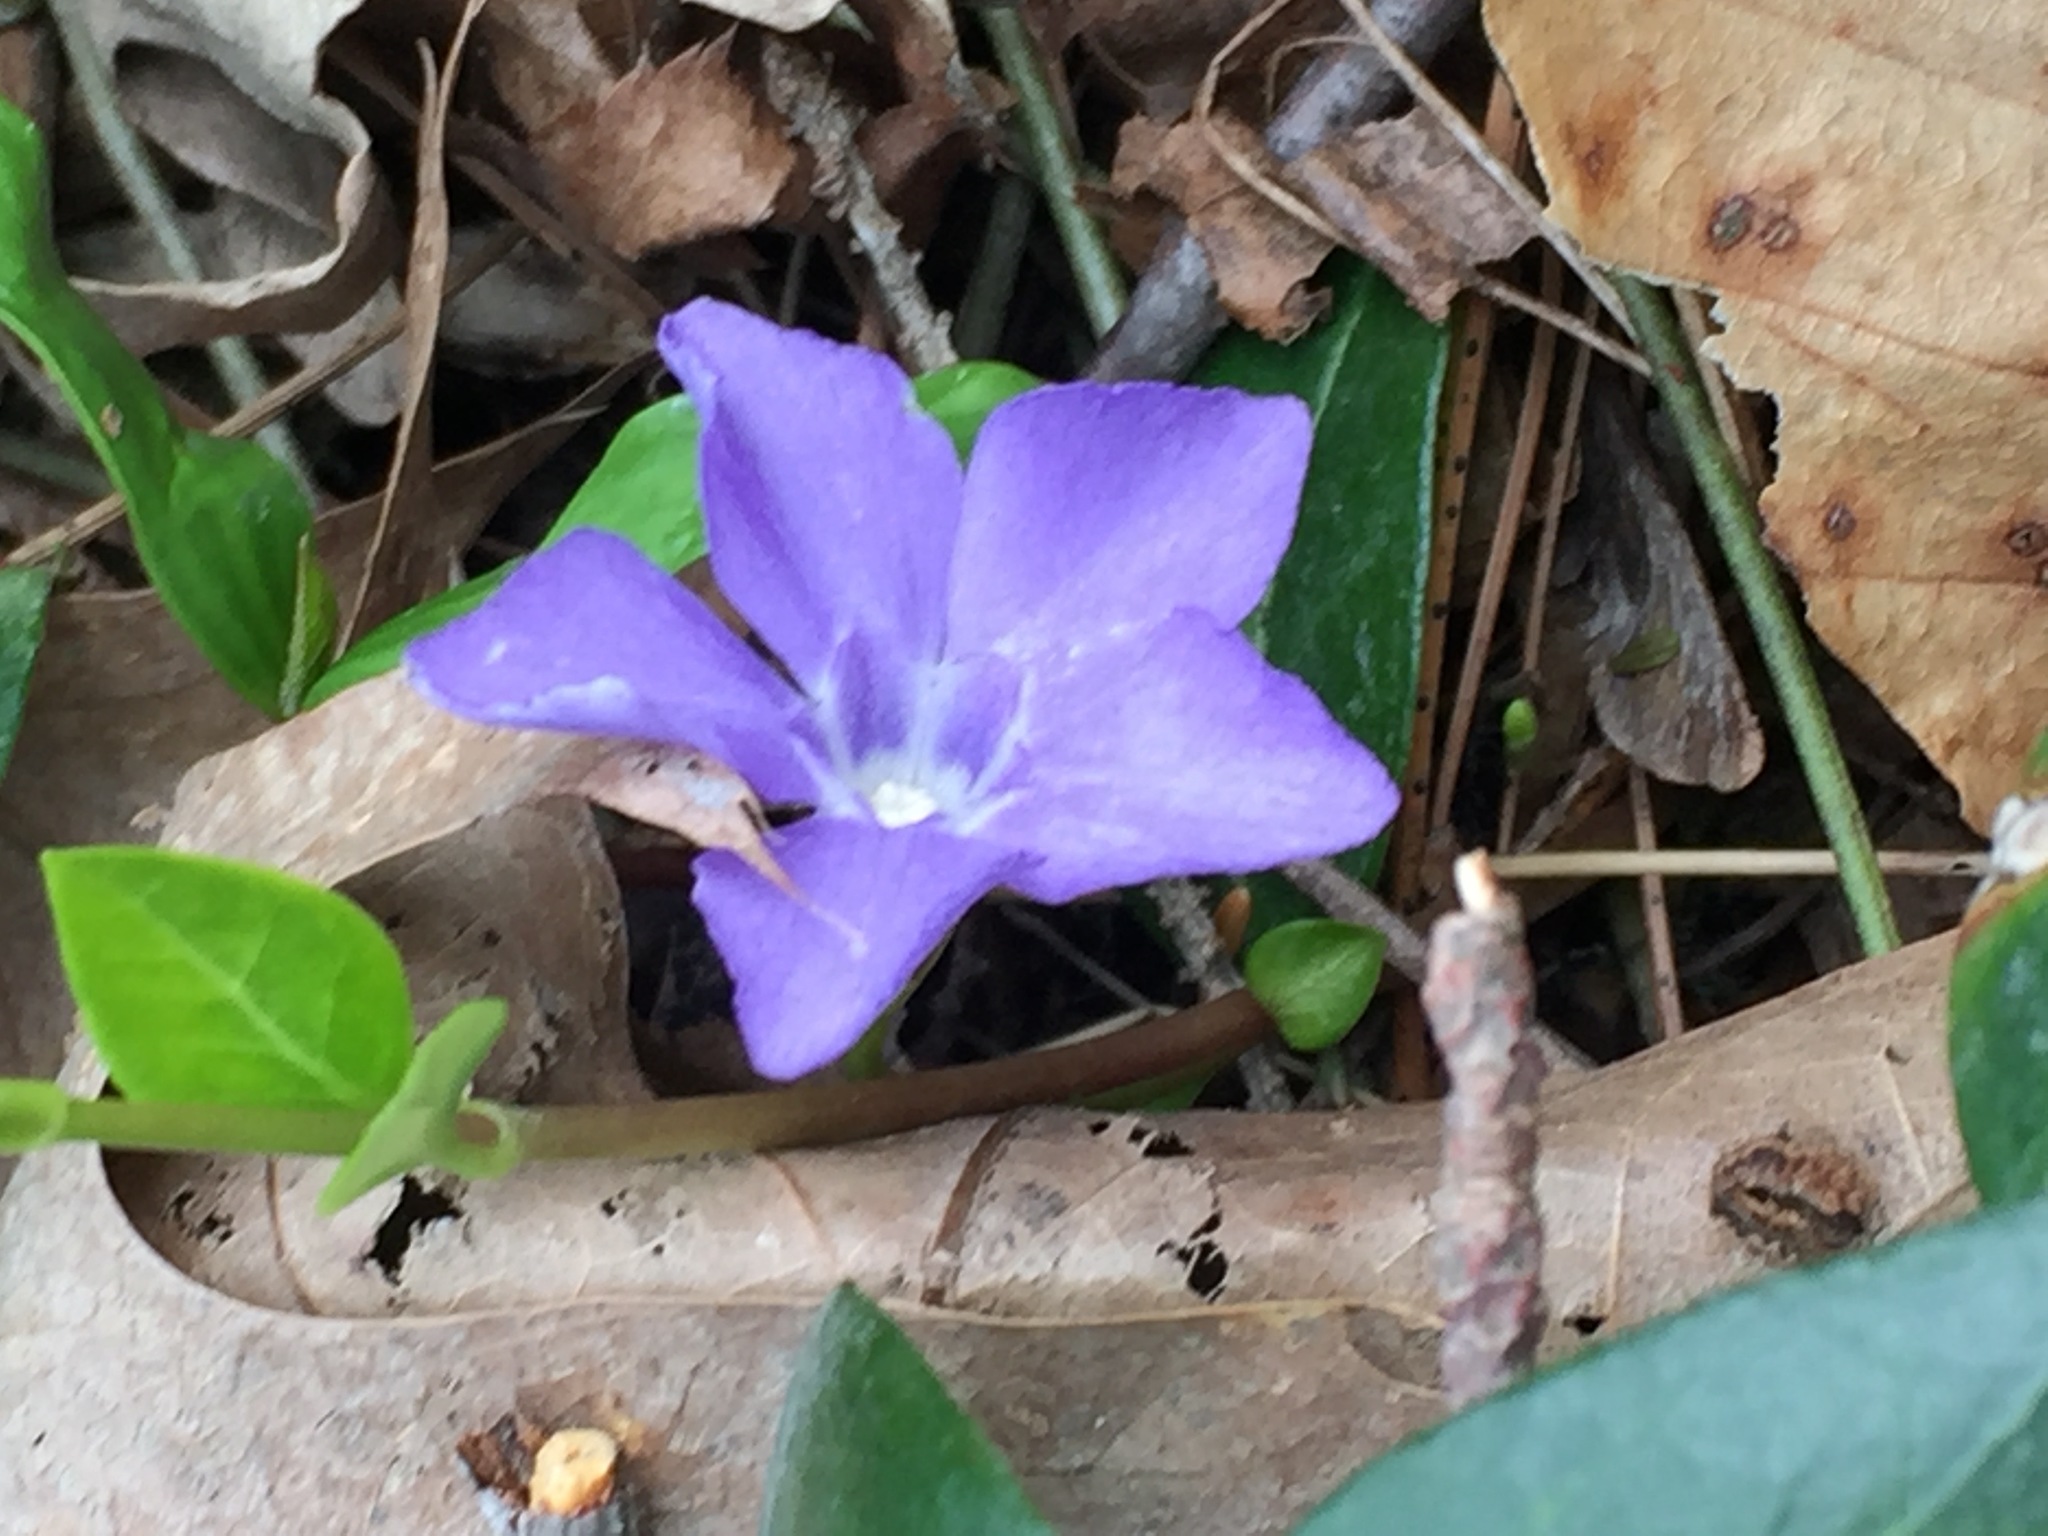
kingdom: Plantae
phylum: Tracheophyta
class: Magnoliopsida
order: Gentianales
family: Apocynaceae
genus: Vinca
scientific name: Vinca minor
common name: Lesser periwinkle
